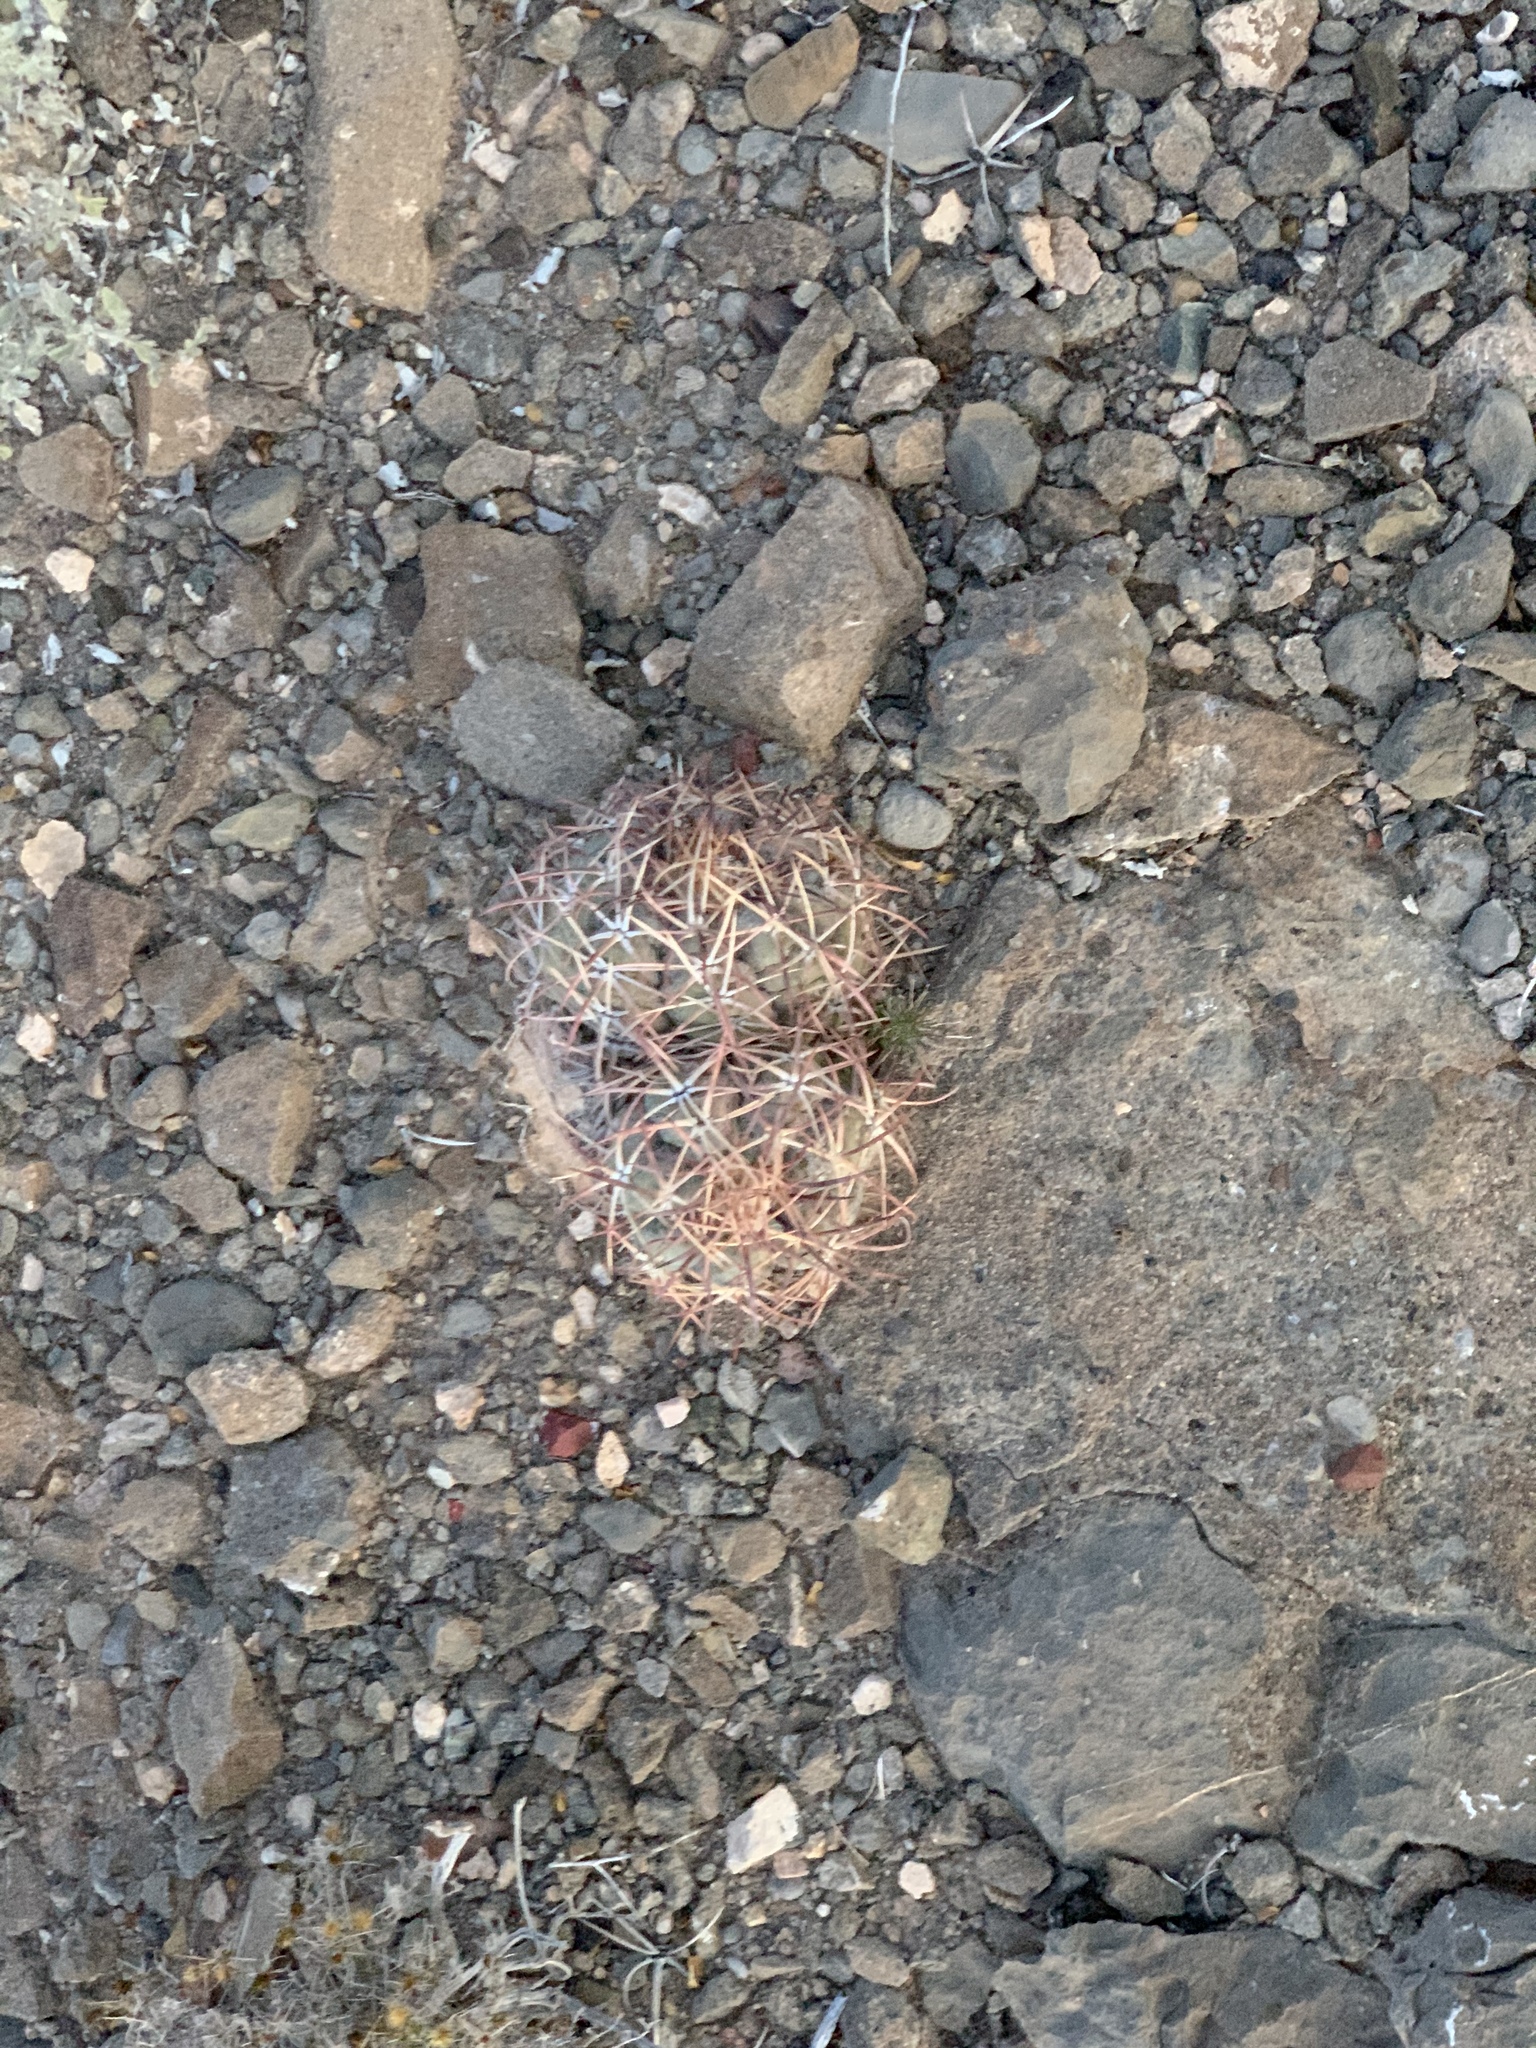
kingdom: Plantae
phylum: Tracheophyta
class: Magnoliopsida
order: Caryophyllales
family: Cactaceae
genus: Echinocactus
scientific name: Echinocactus horizonthalonius
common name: Devilshead
